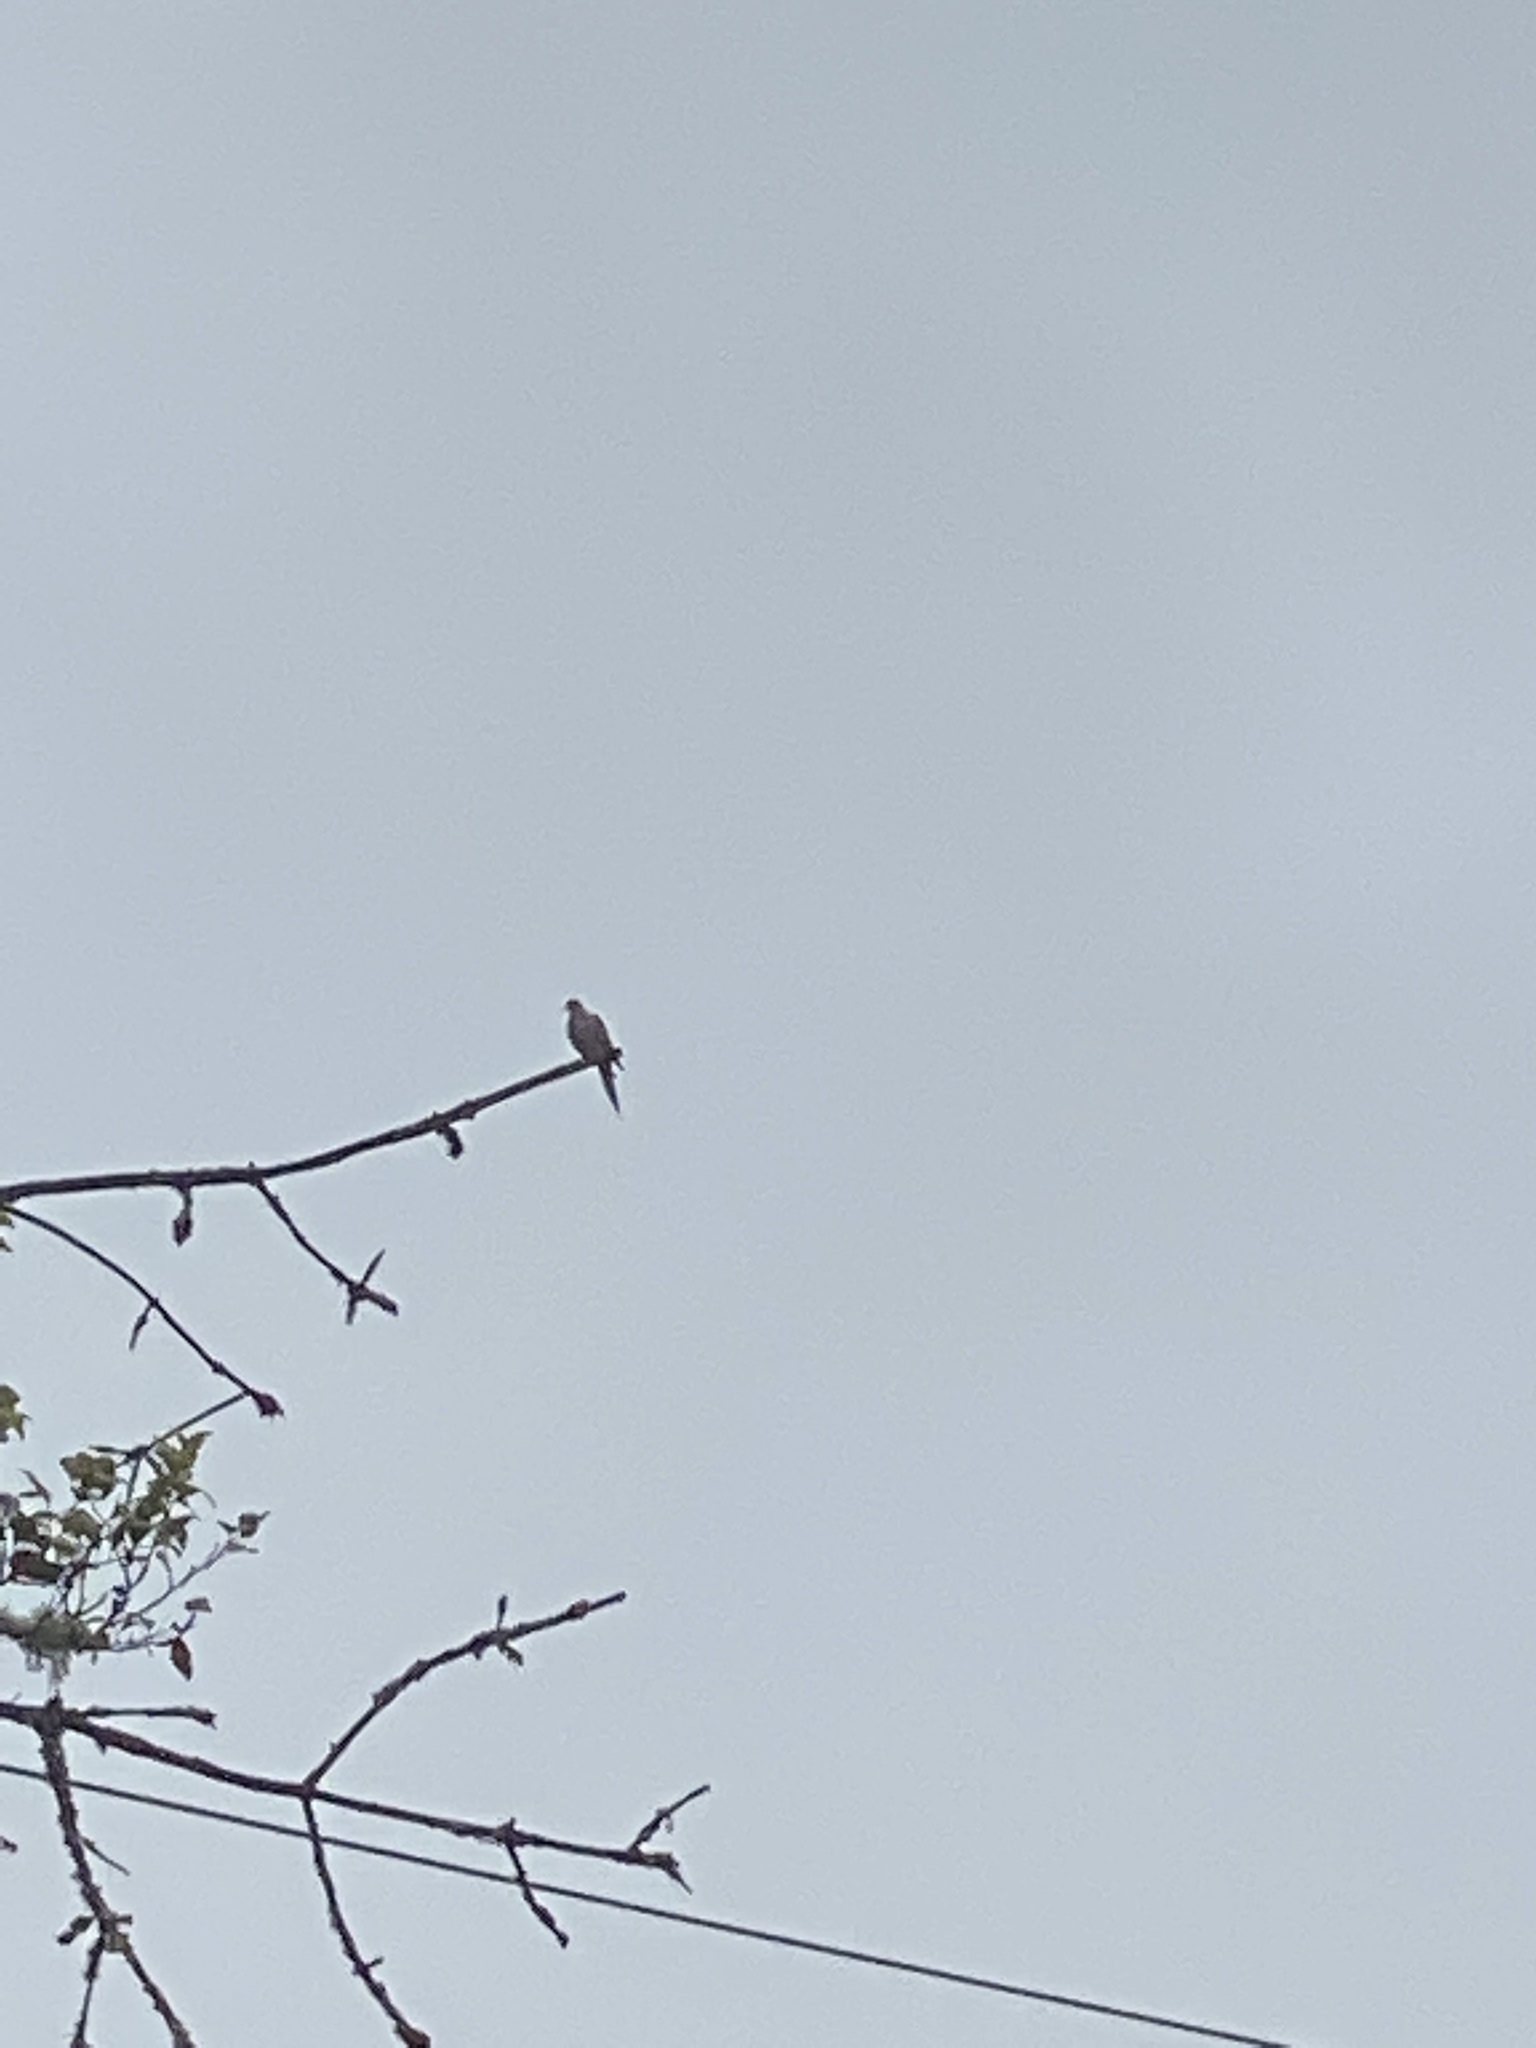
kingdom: Animalia
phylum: Chordata
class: Aves
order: Columbiformes
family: Columbidae
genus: Zenaida
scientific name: Zenaida macroura
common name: Mourning dove
